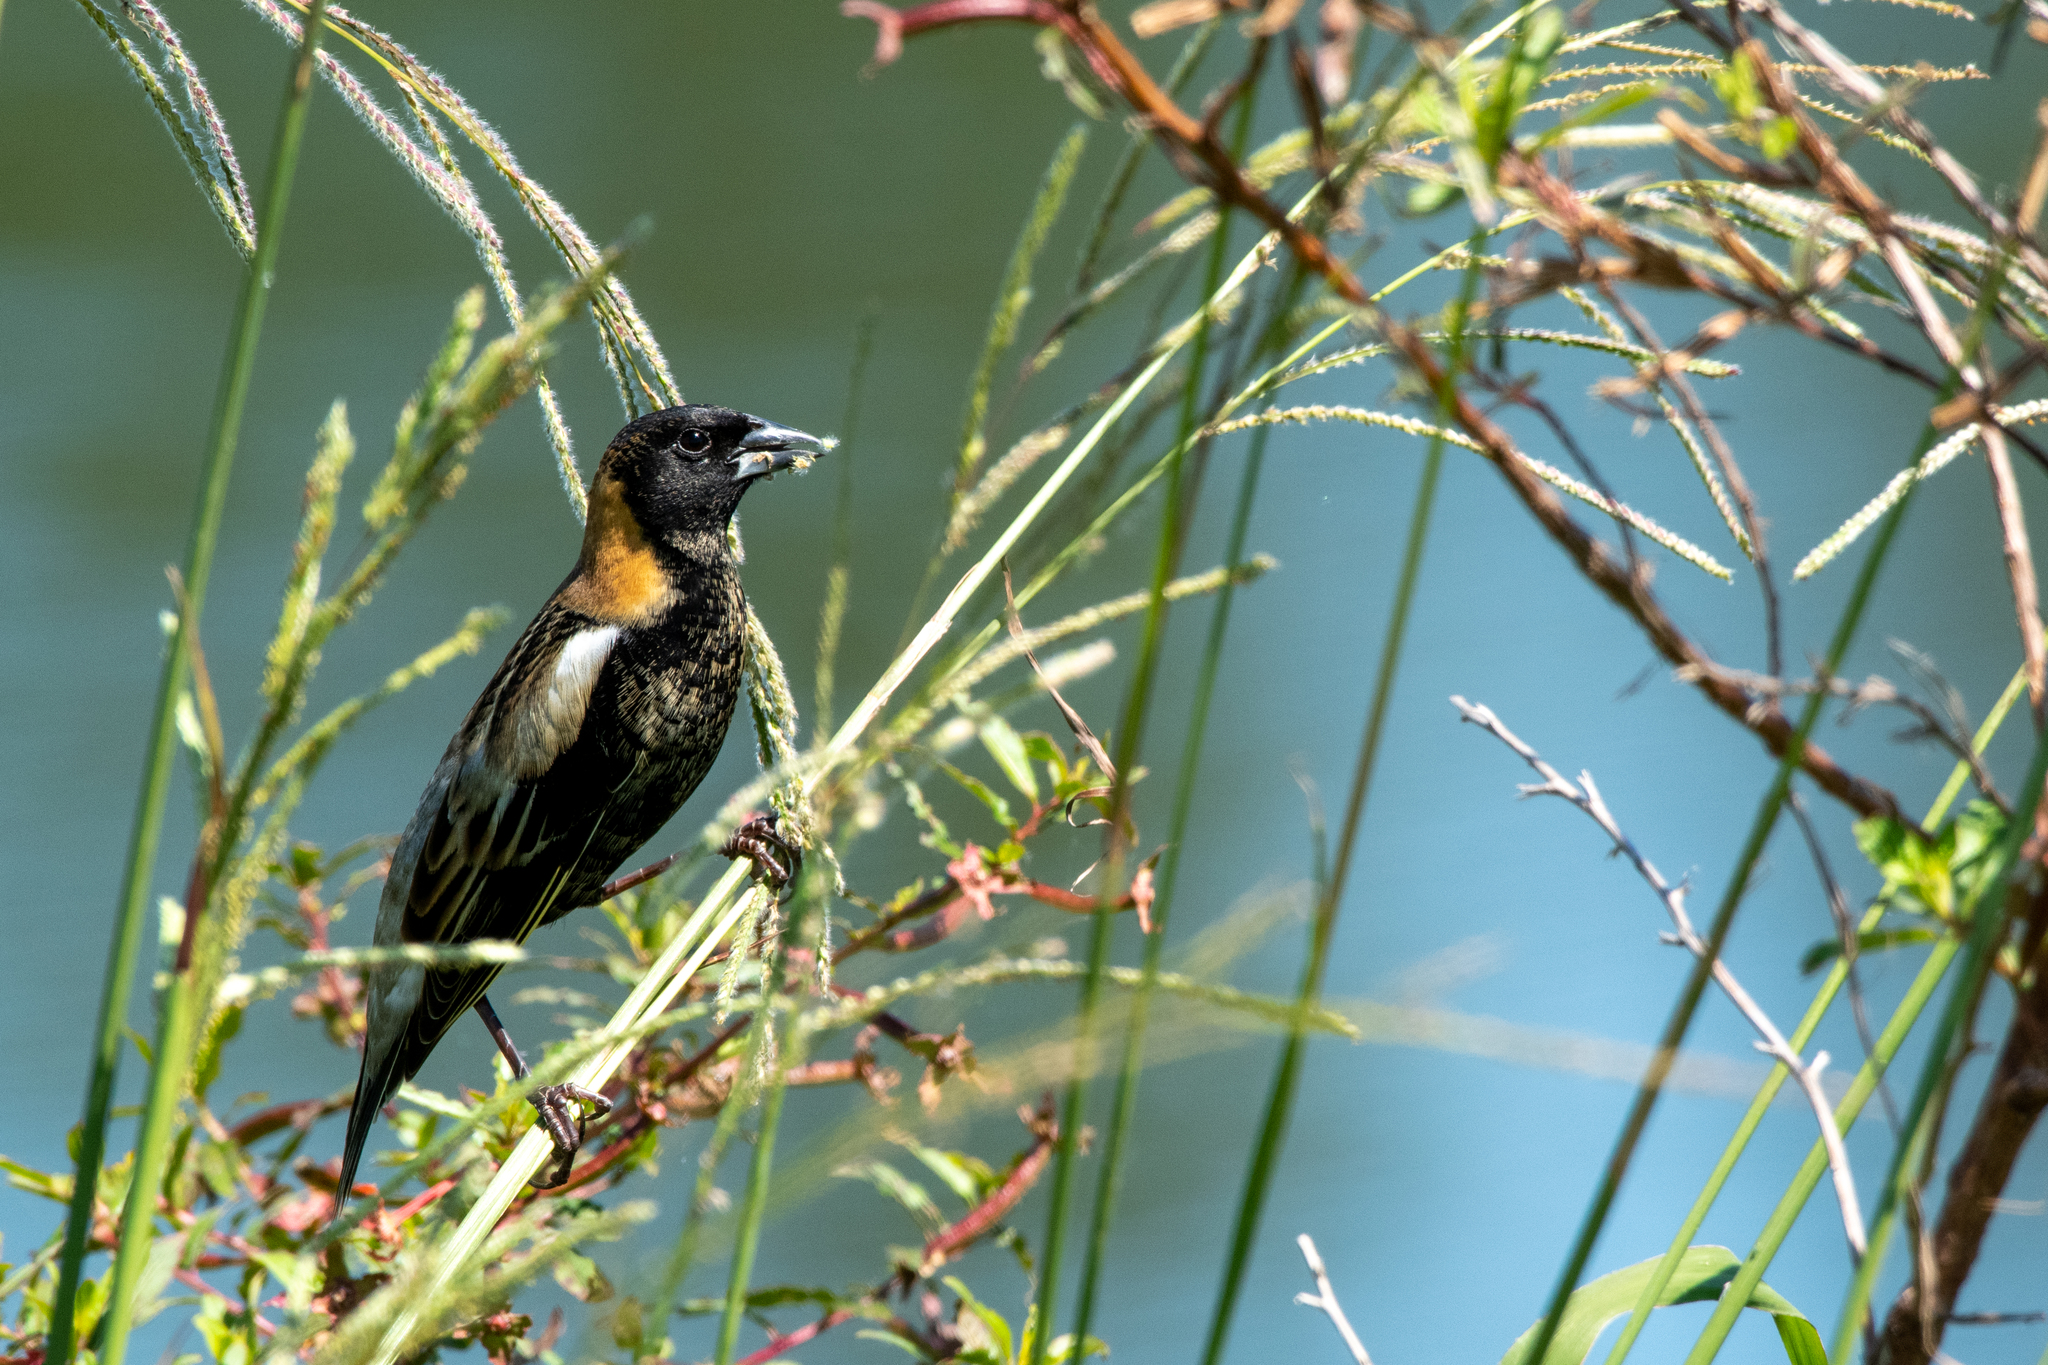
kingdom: Animalia
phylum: Chordata
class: Aves
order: Passeriformes
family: Icteridae
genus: Dolichonyx
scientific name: Dolichonyx oryzivorus
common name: Bobolink
